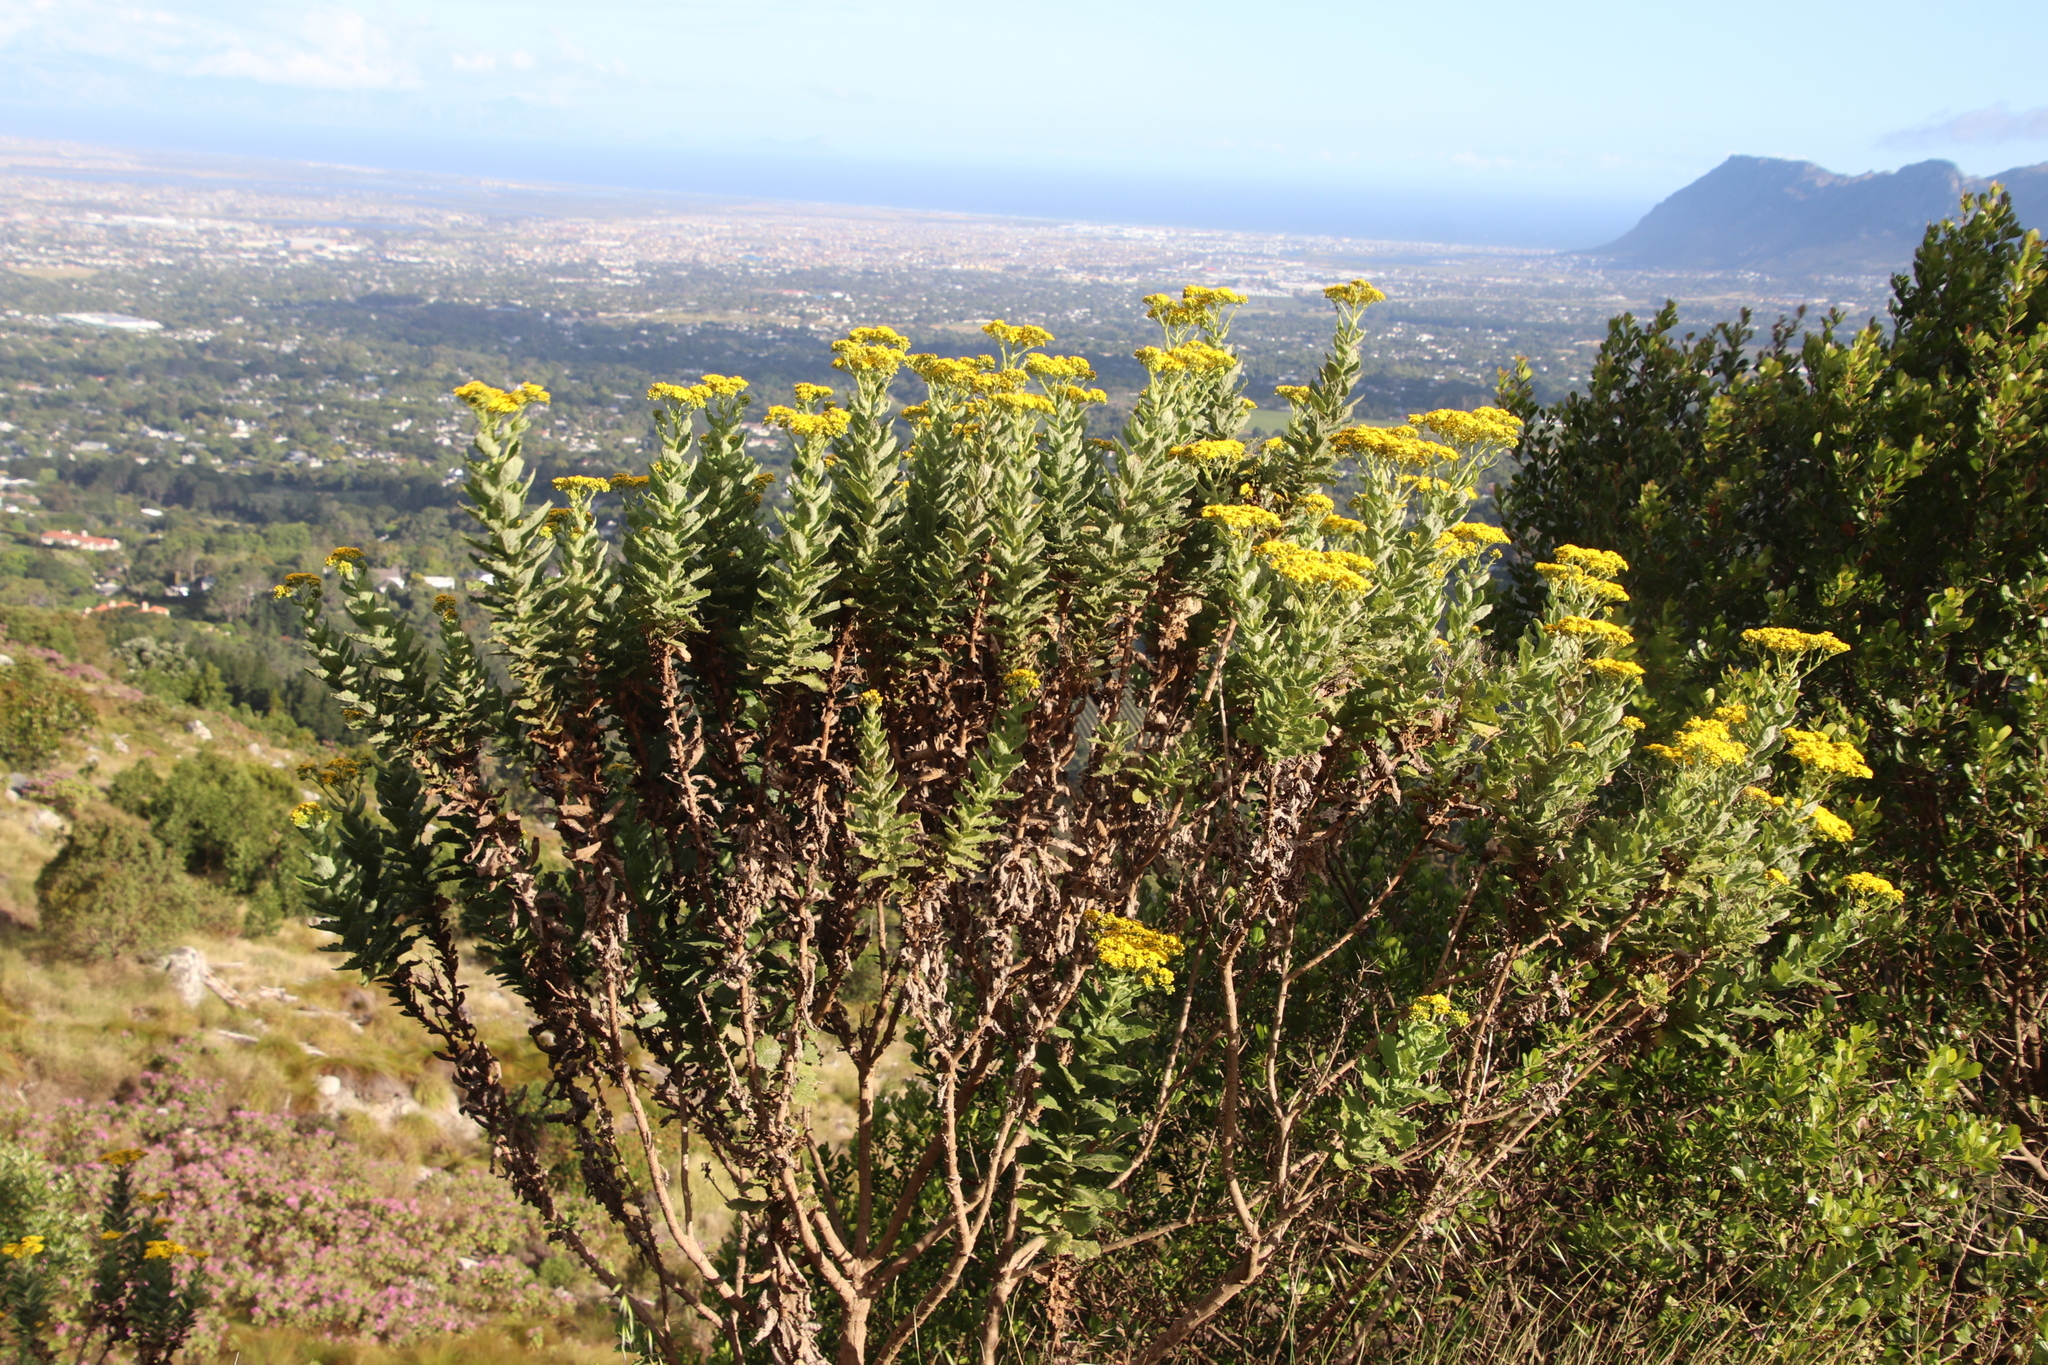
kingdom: Plantae
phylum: Tracheophyta
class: Magnoliopsida
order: Asterales
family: Asteraceae
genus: Senecio
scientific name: Senecio rigidus
